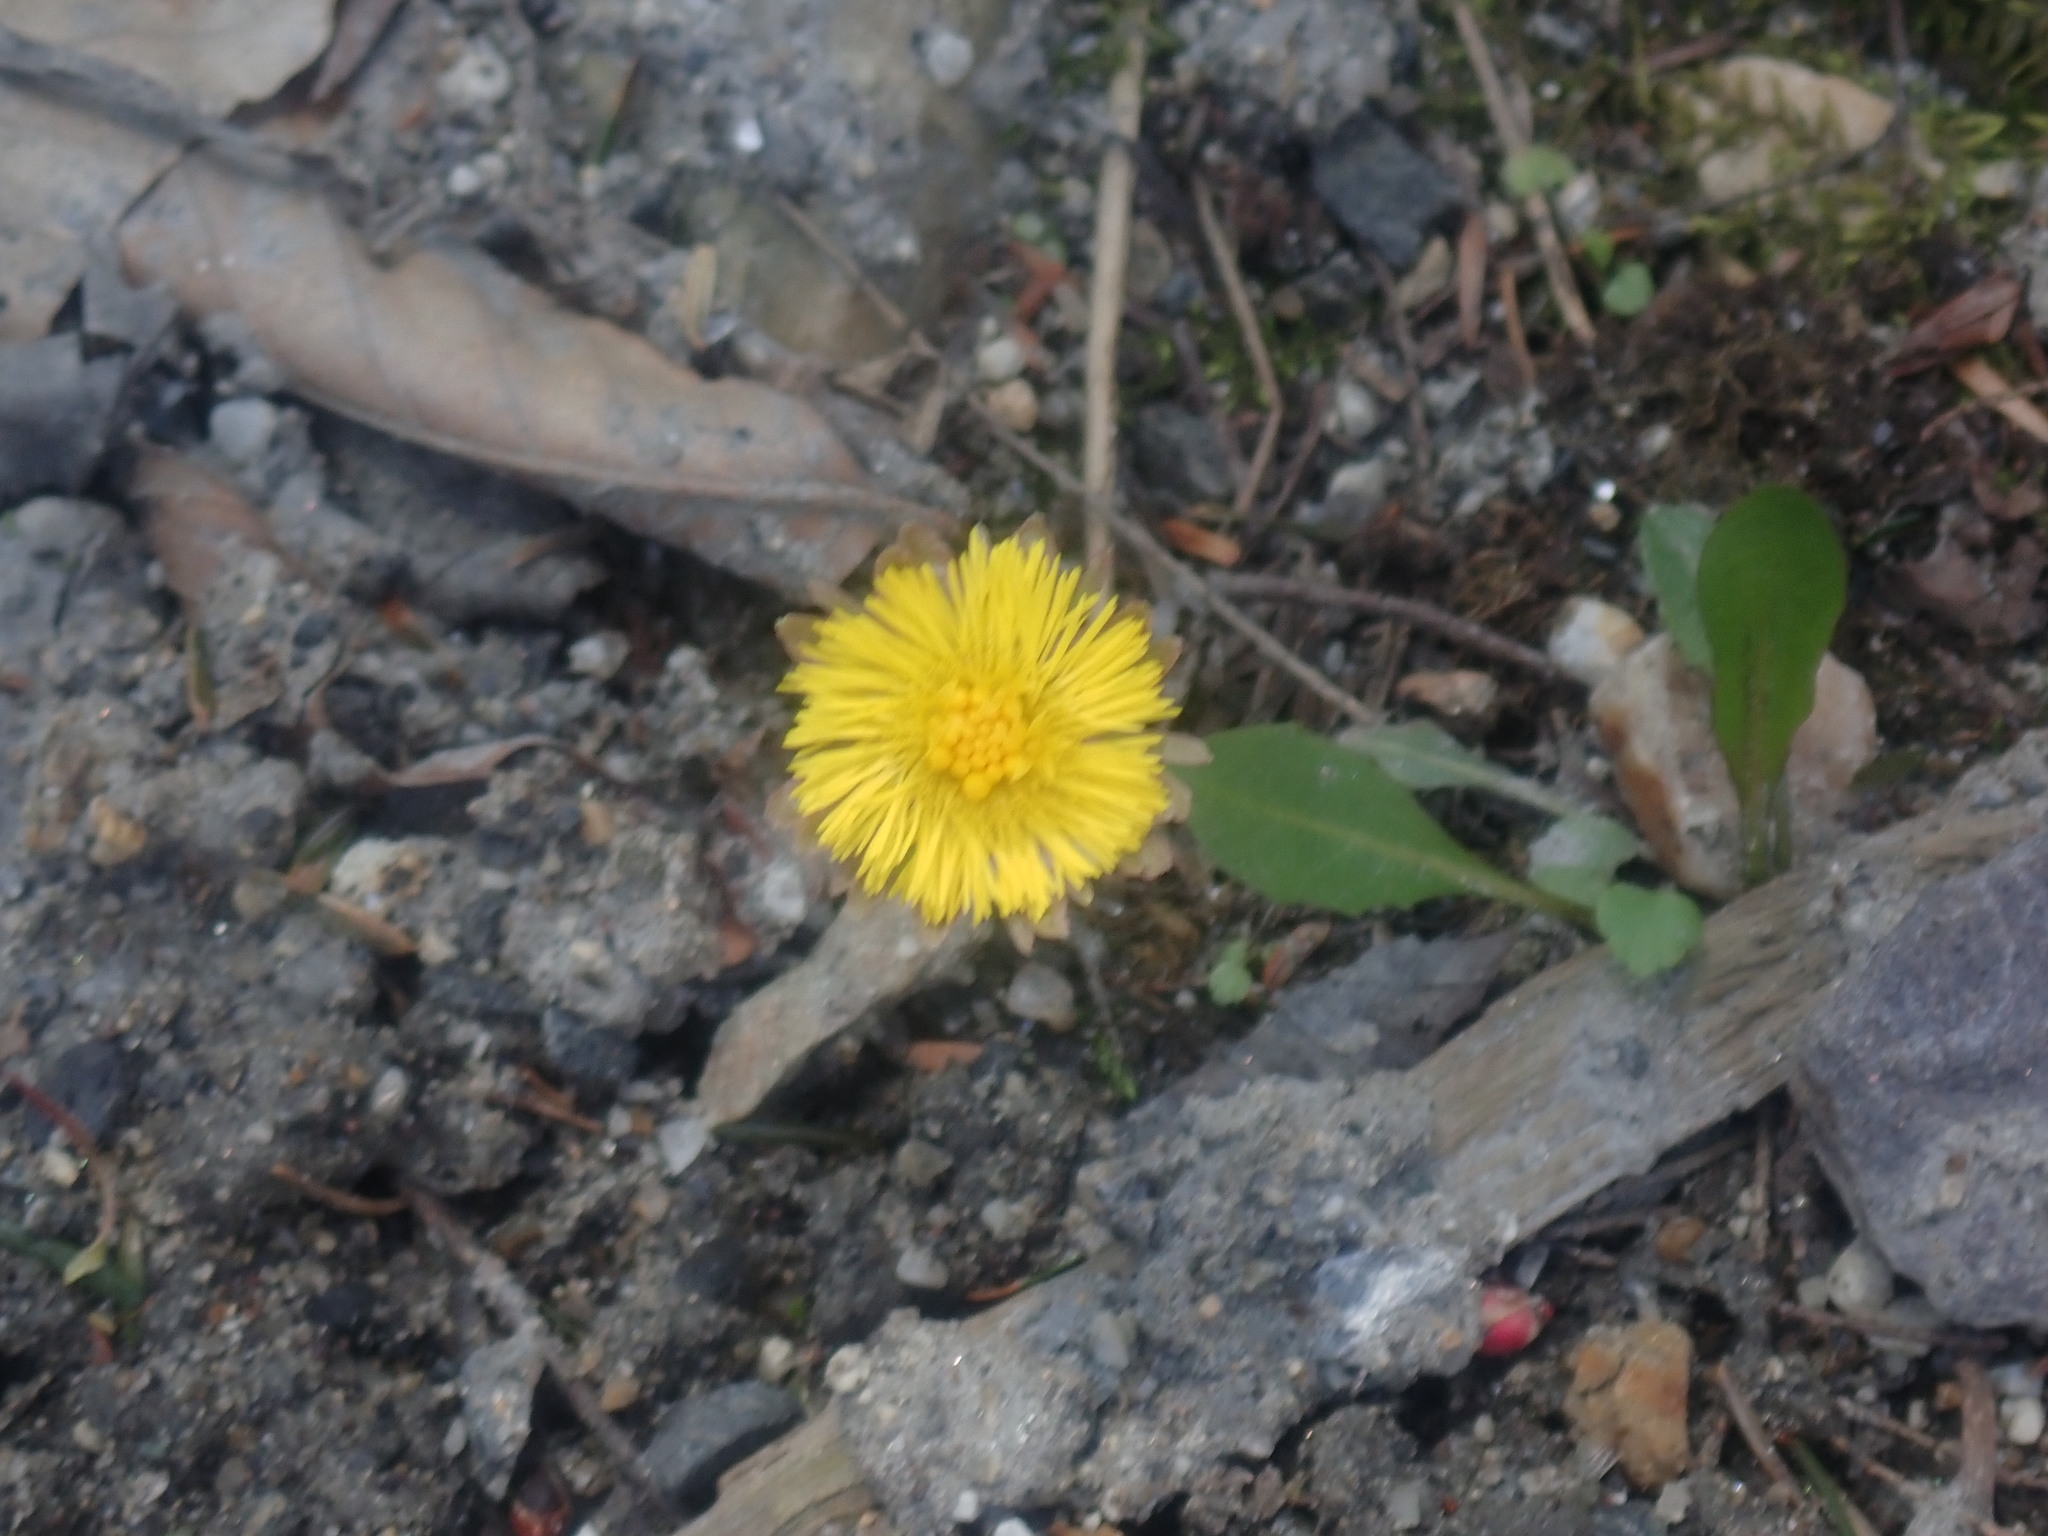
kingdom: Plantae
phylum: Tracheophyta
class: Magnoliopsida
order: Asterales
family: Asteraceae
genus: Tussilago
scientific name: Tussilago farfara
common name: Coltsfoot
